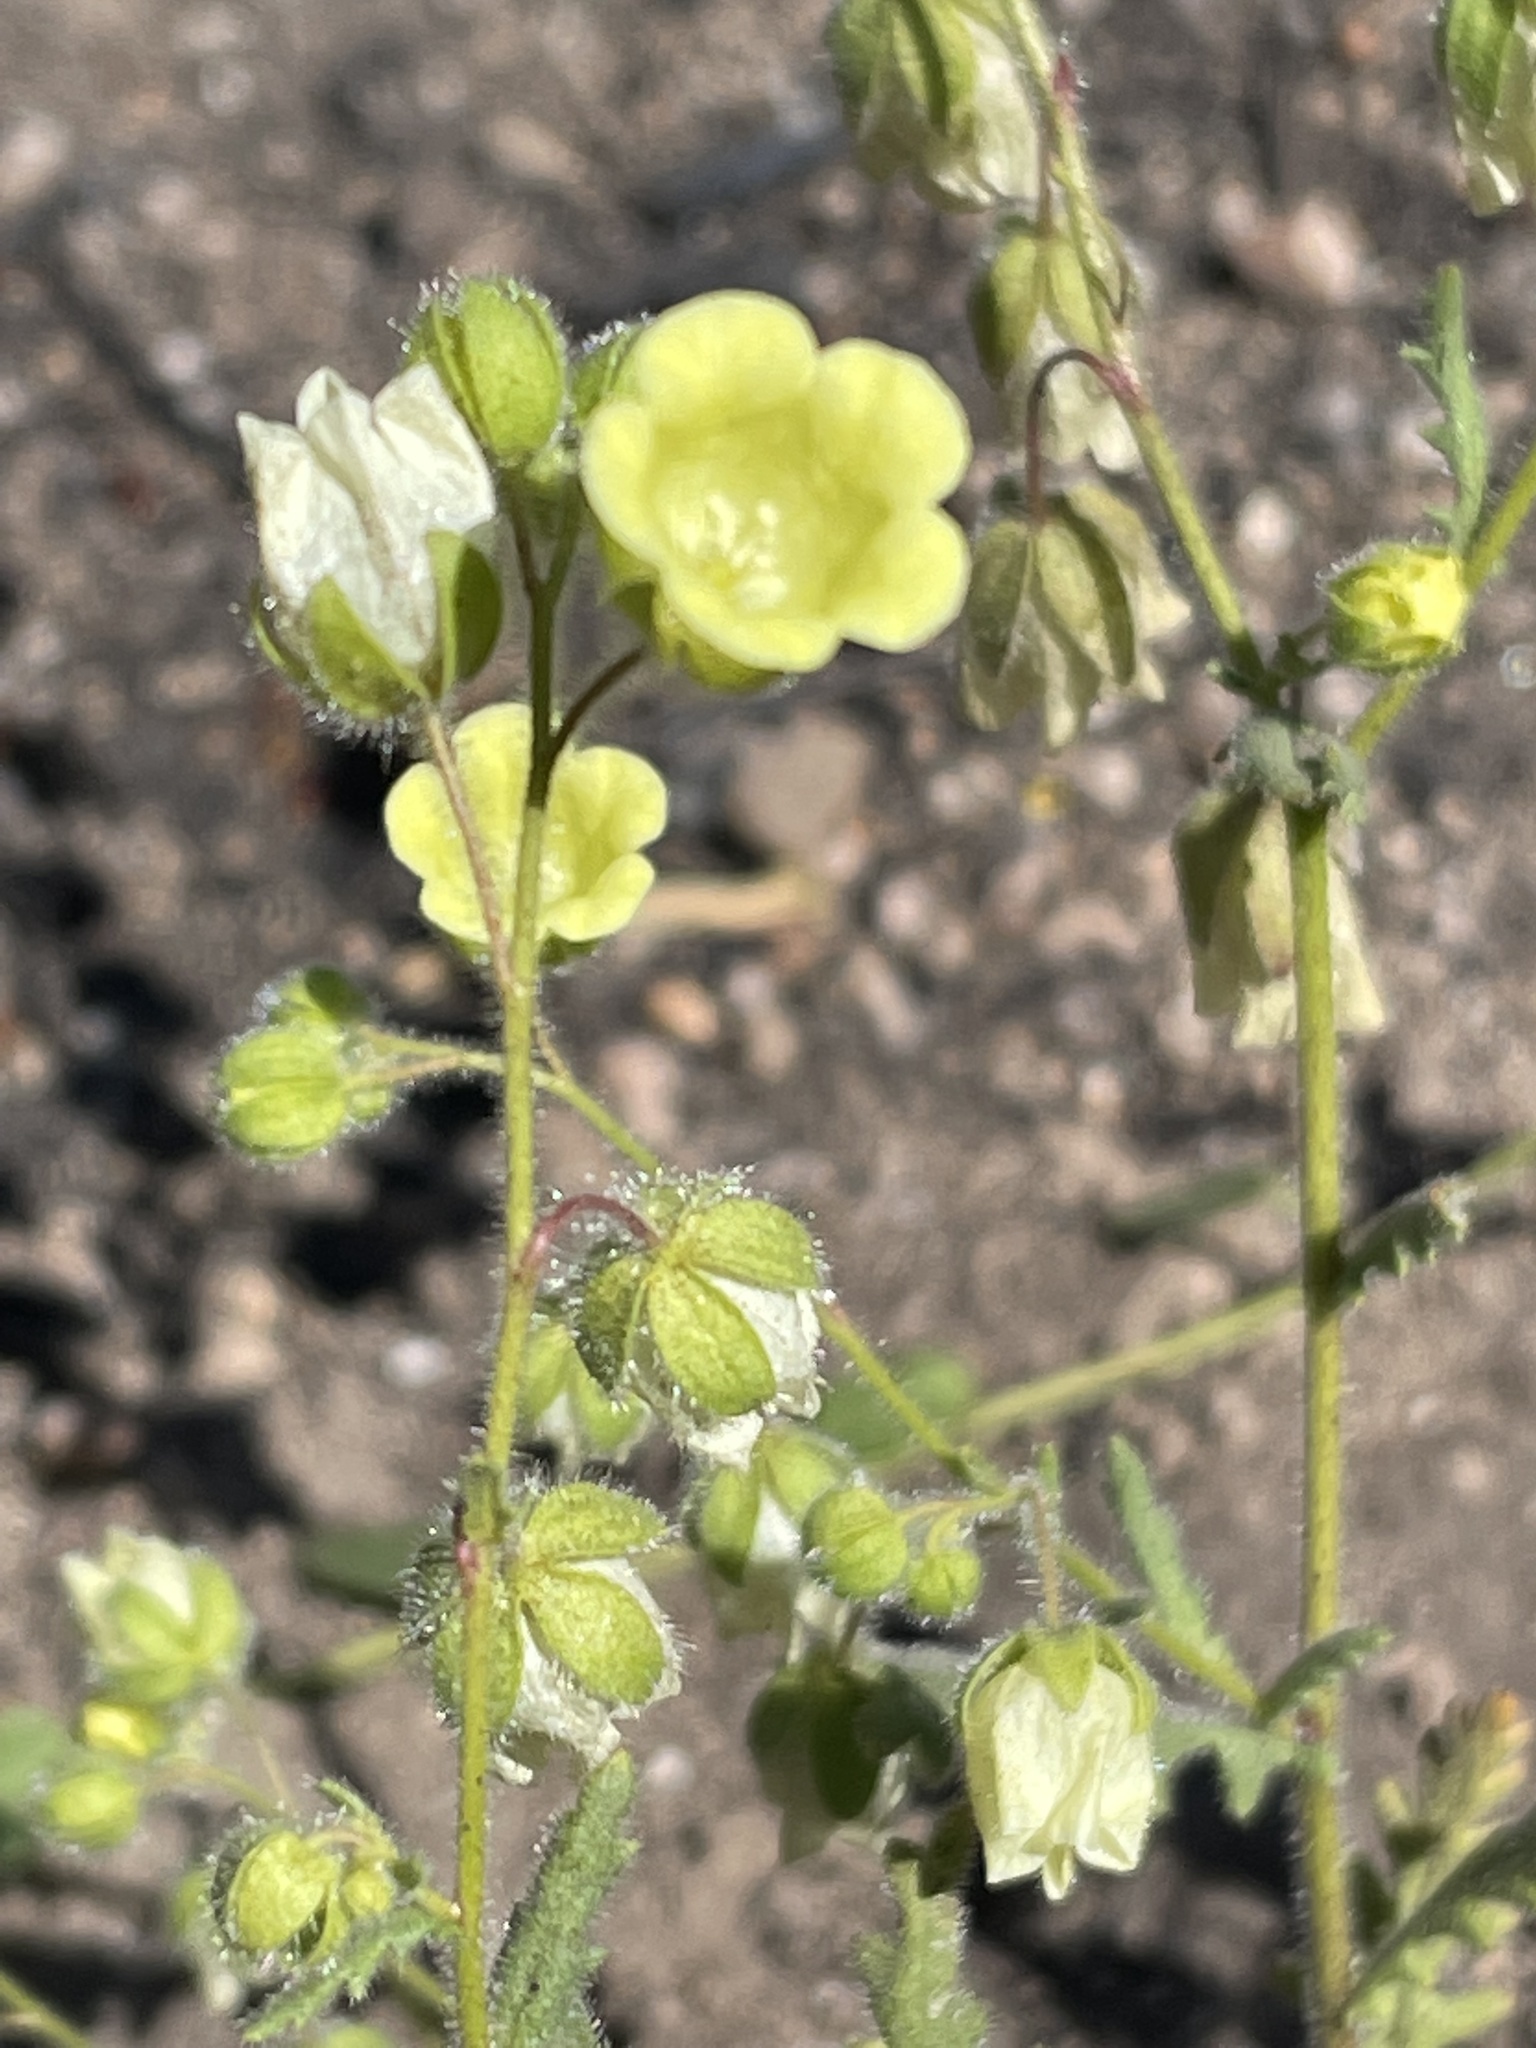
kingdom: Plantae
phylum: Tracheophyta
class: Magnoliopsida
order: Boraginales
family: Hydrophyllaceae
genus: Emmenanthe
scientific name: Emmenanthe penduliflora
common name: Whispering-bells
